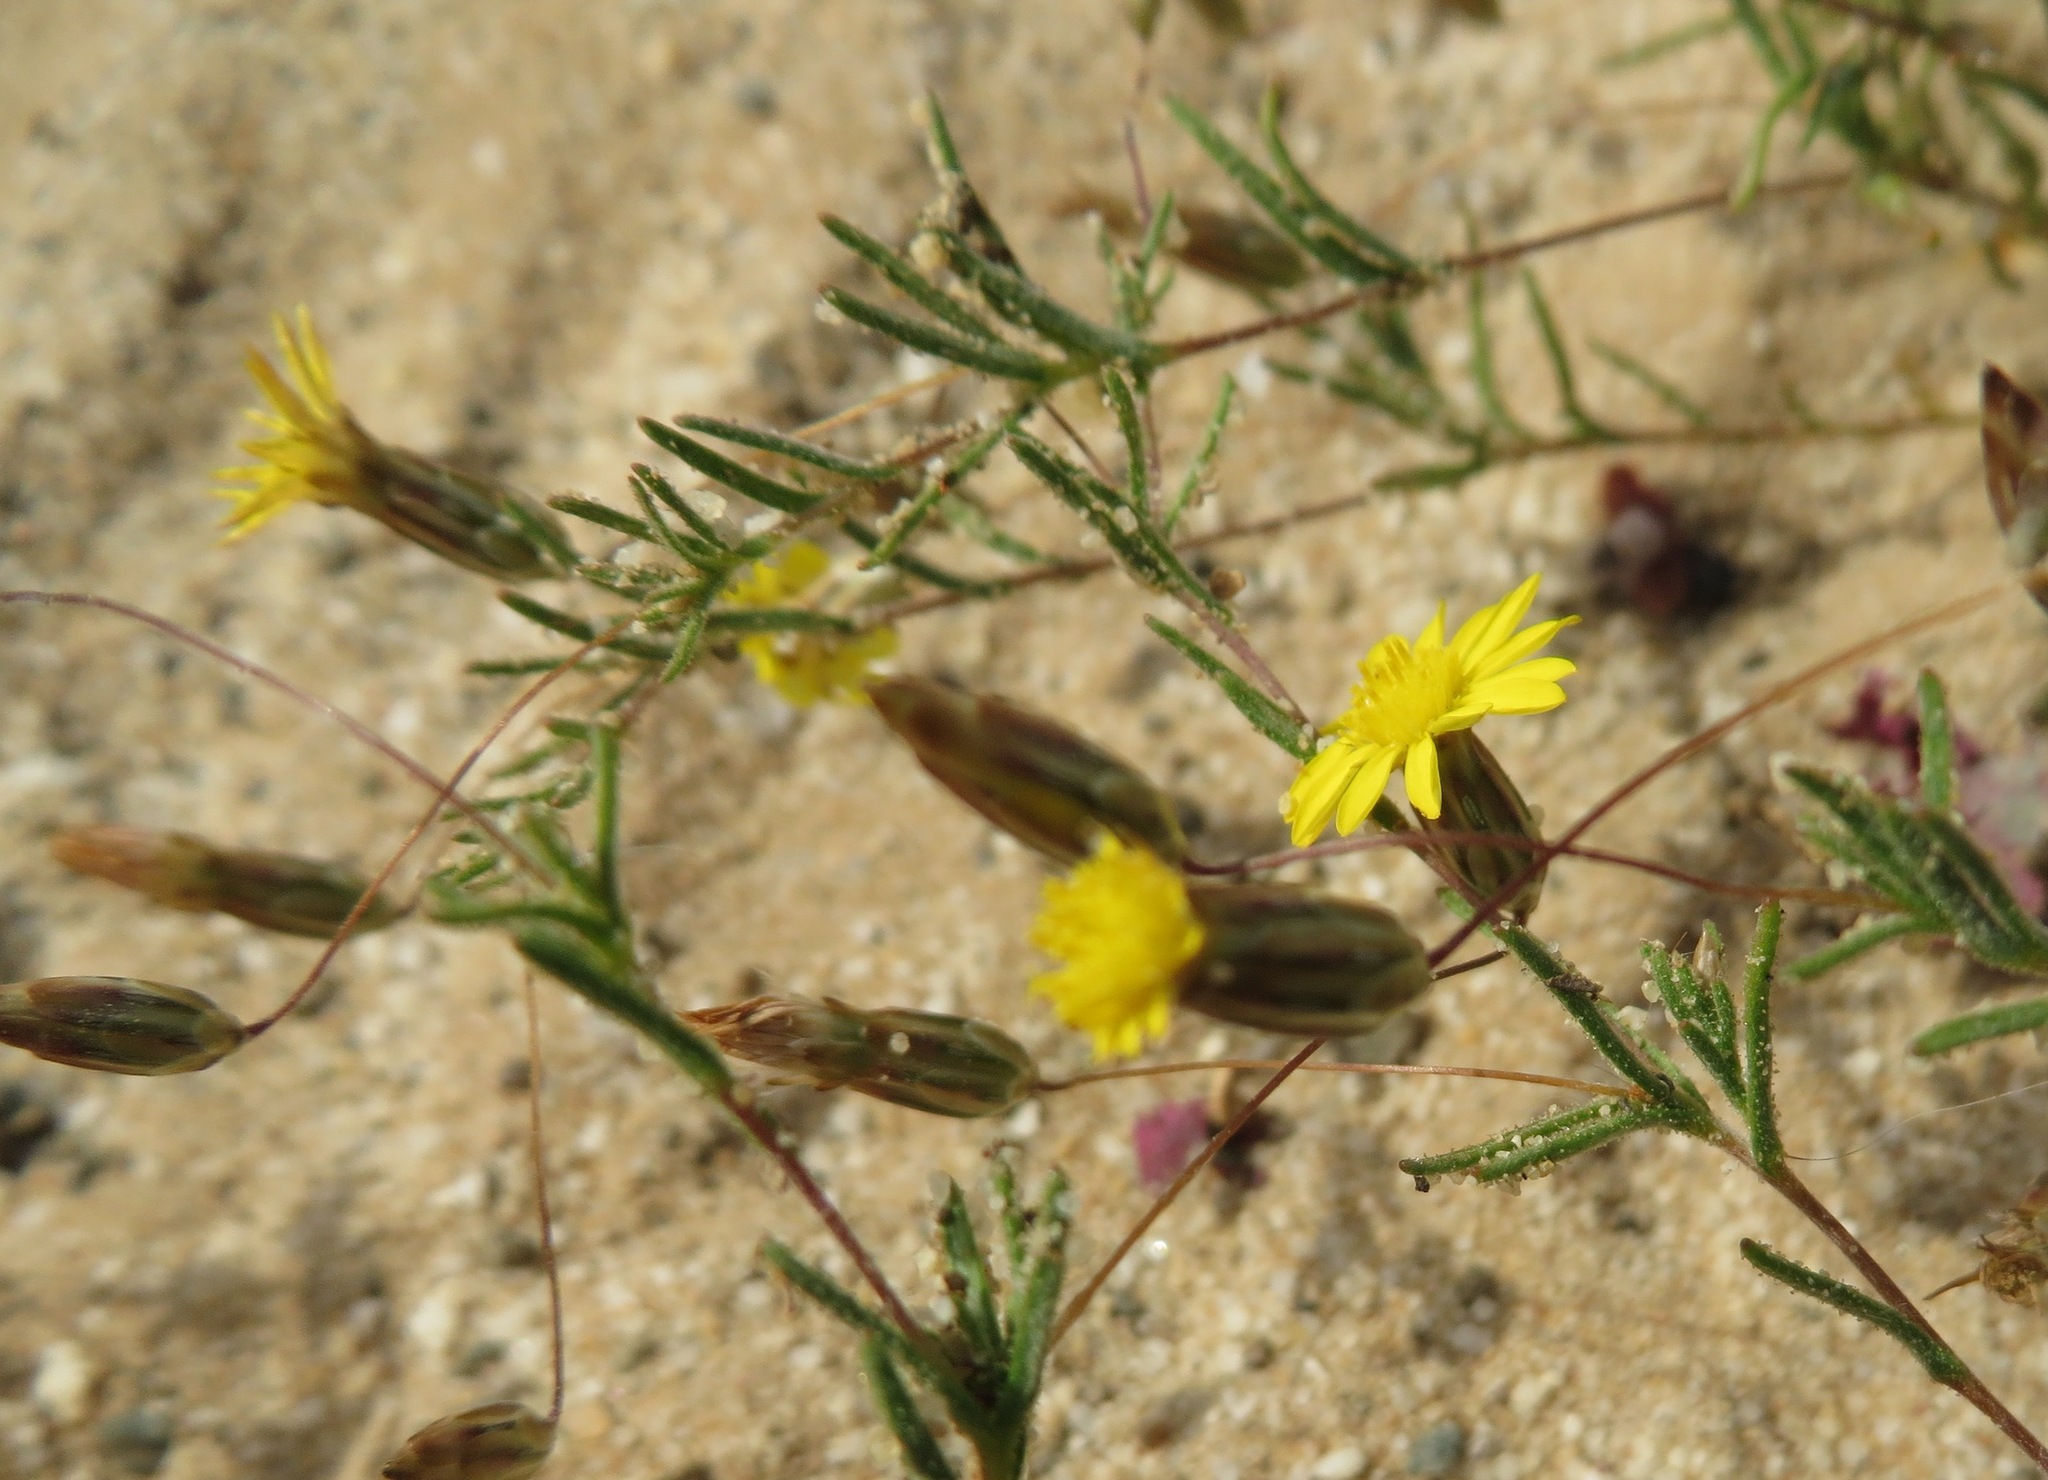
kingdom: Plantae
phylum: Tracheophyta
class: Magnoliopsida
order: Asterales
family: Asteraceae
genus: Leysera
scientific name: Leysera tenella
